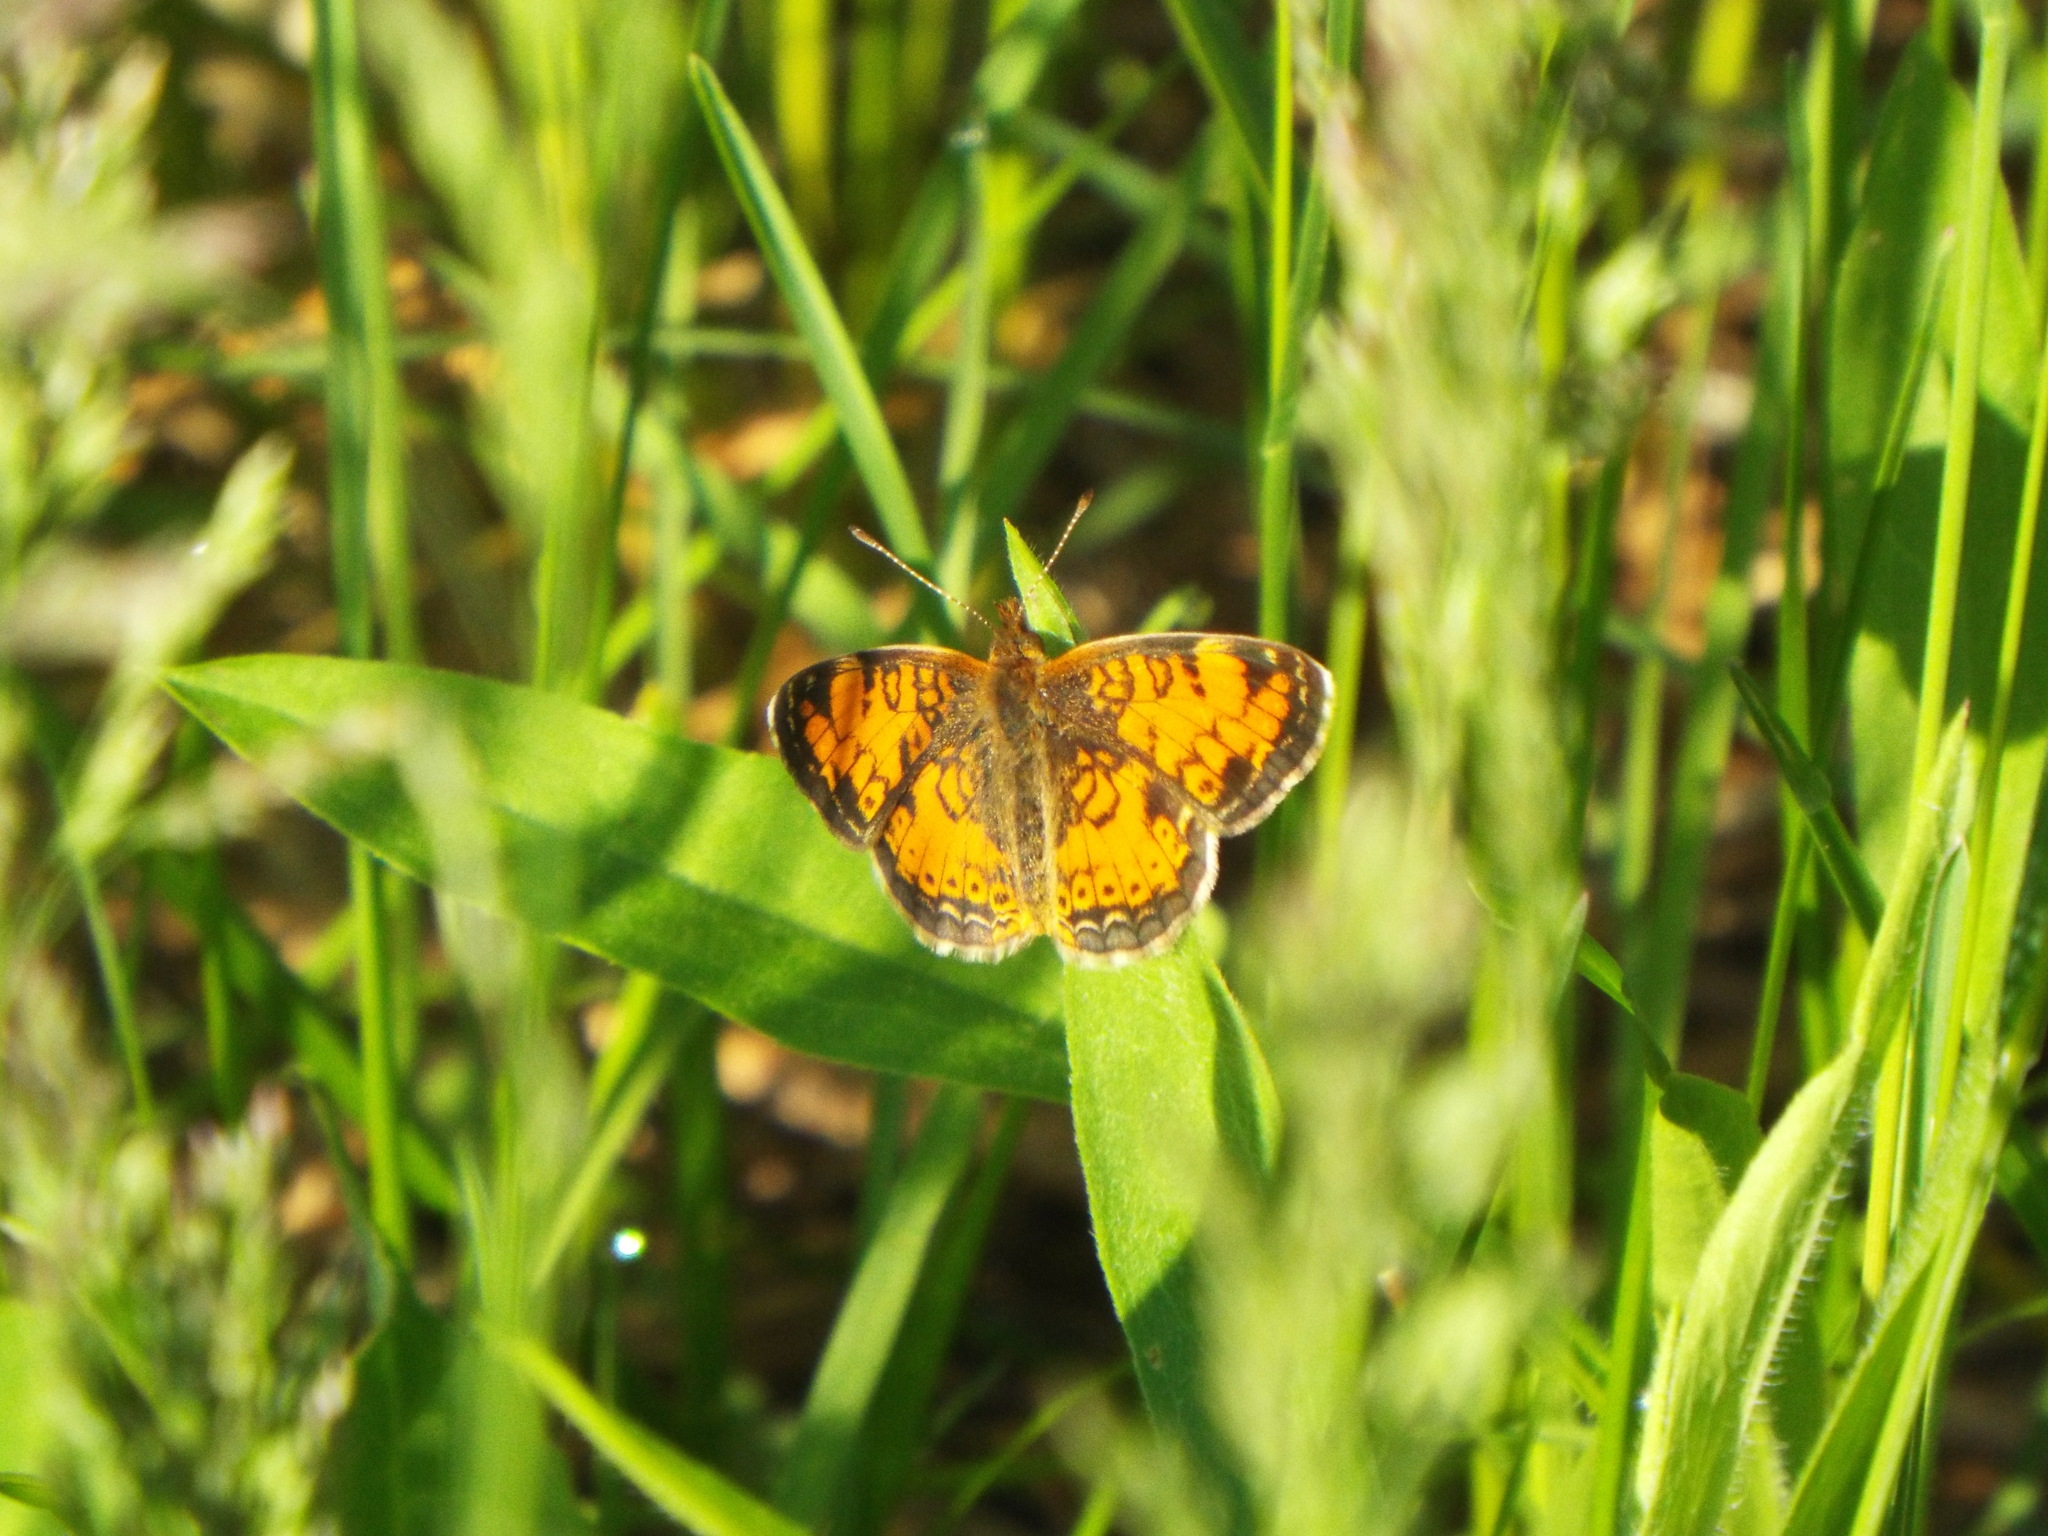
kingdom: Animalia
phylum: Arthropoda
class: Insecta
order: Lepidoptera
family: Nymphalidae
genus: Phyciodes
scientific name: Phyciodes tharos
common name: Pearl crescent
